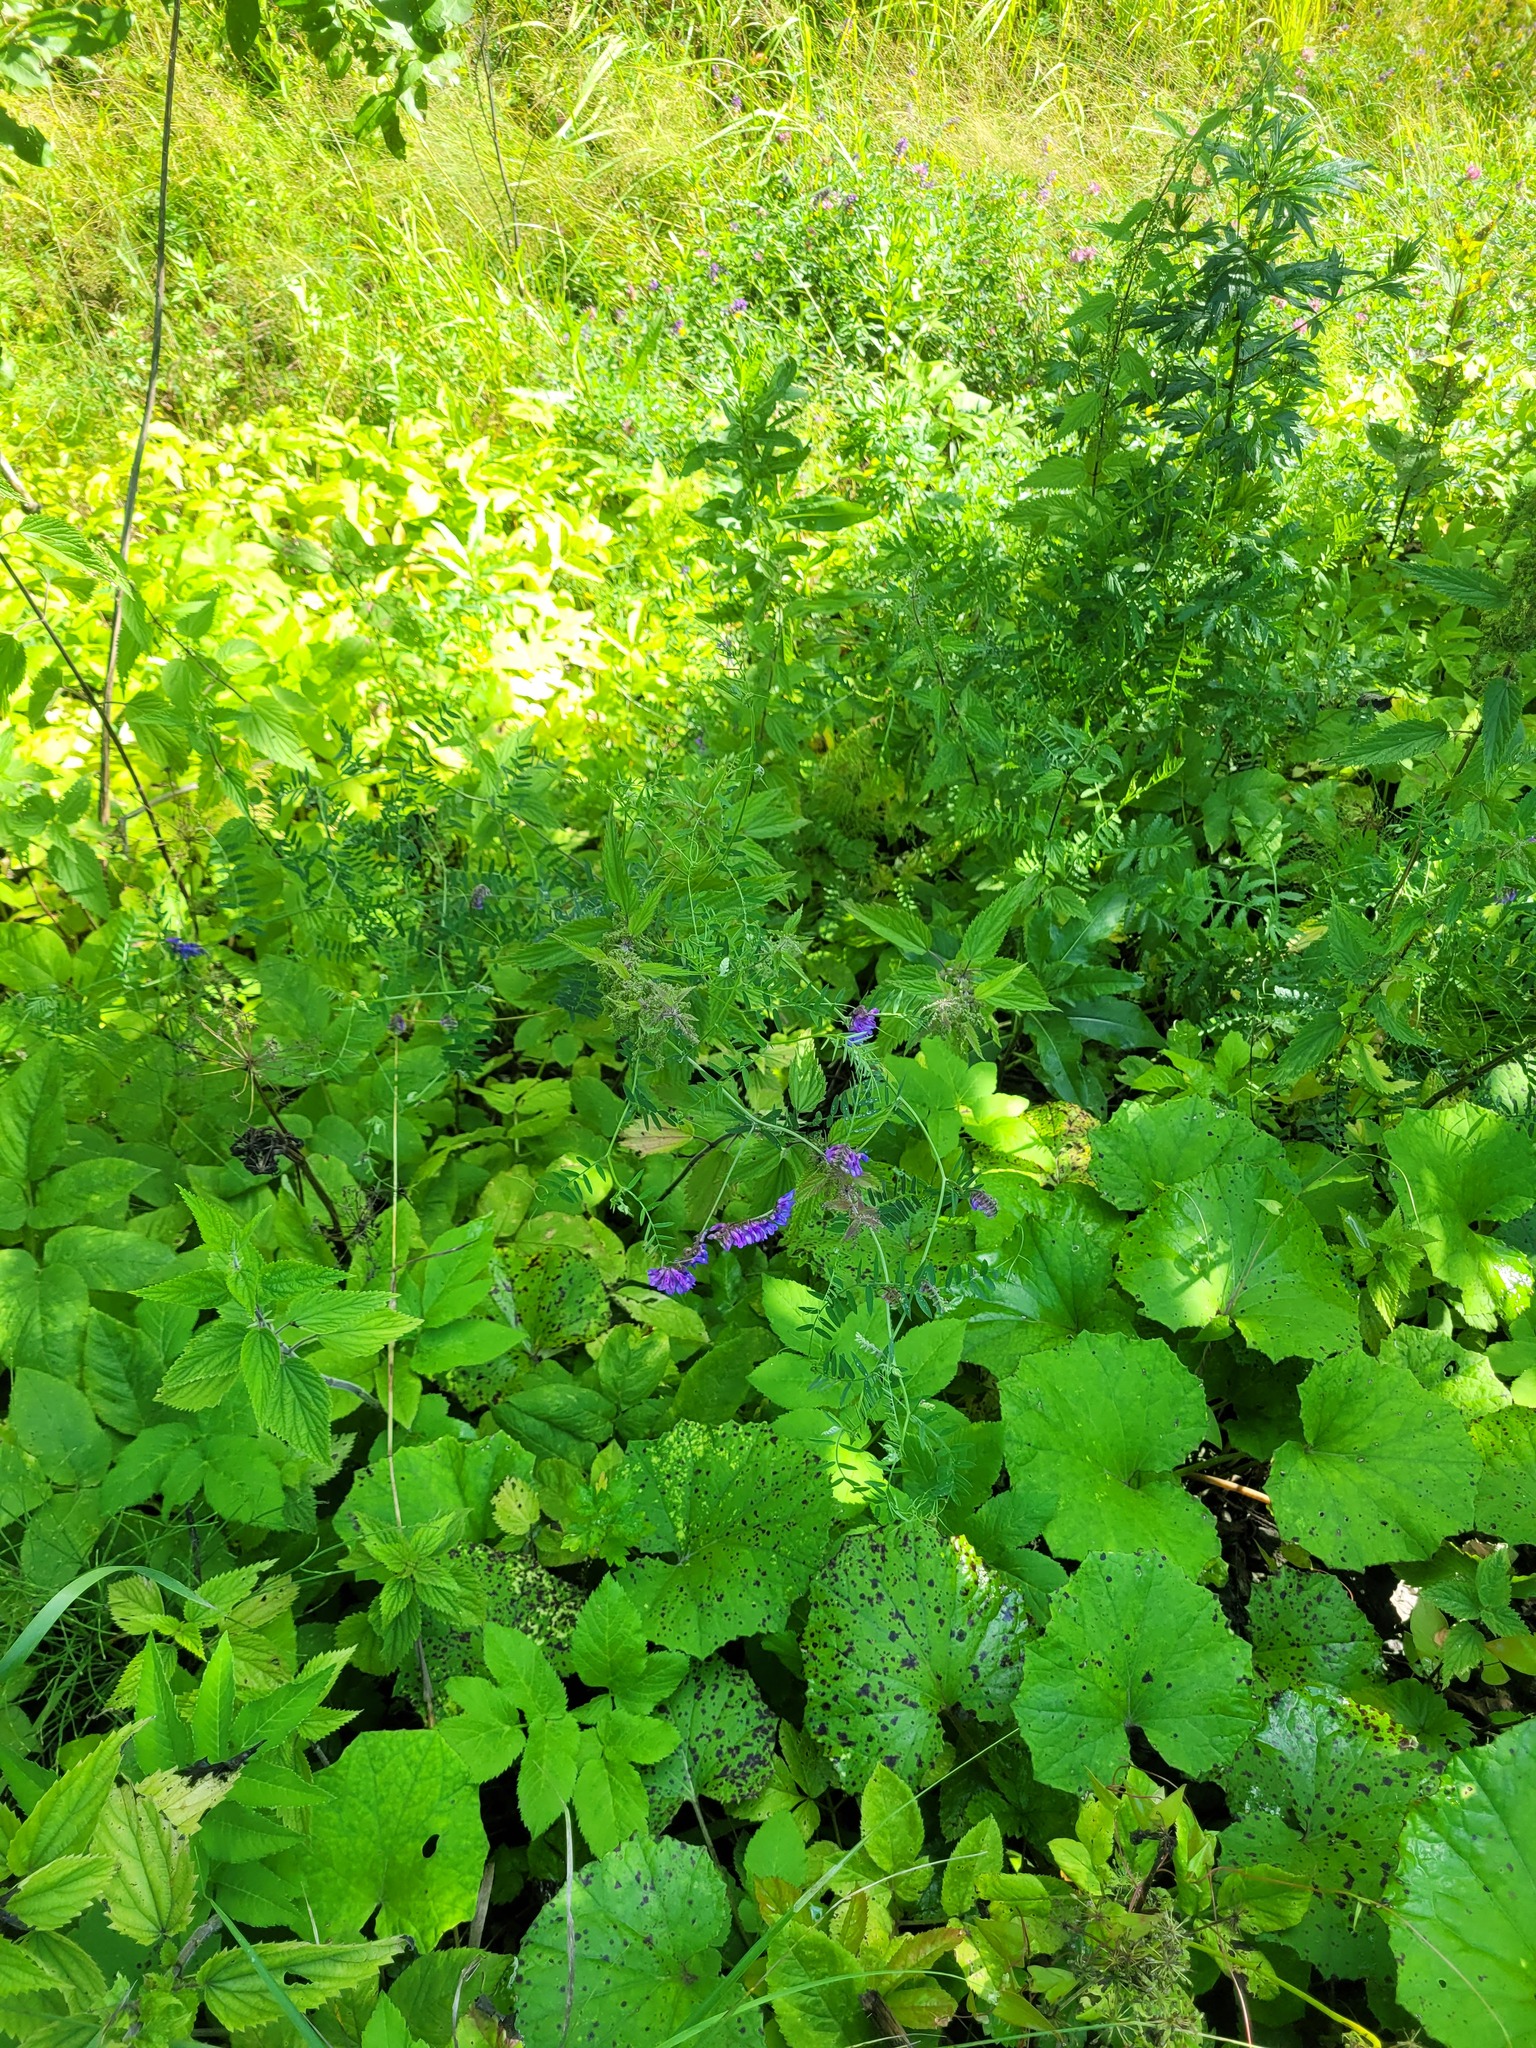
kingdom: Plantae
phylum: Tracheophyta
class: Magnoliopsida
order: Fabales
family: Fabaceae
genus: Vicia
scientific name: Vicia cracca
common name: Bird vetch
